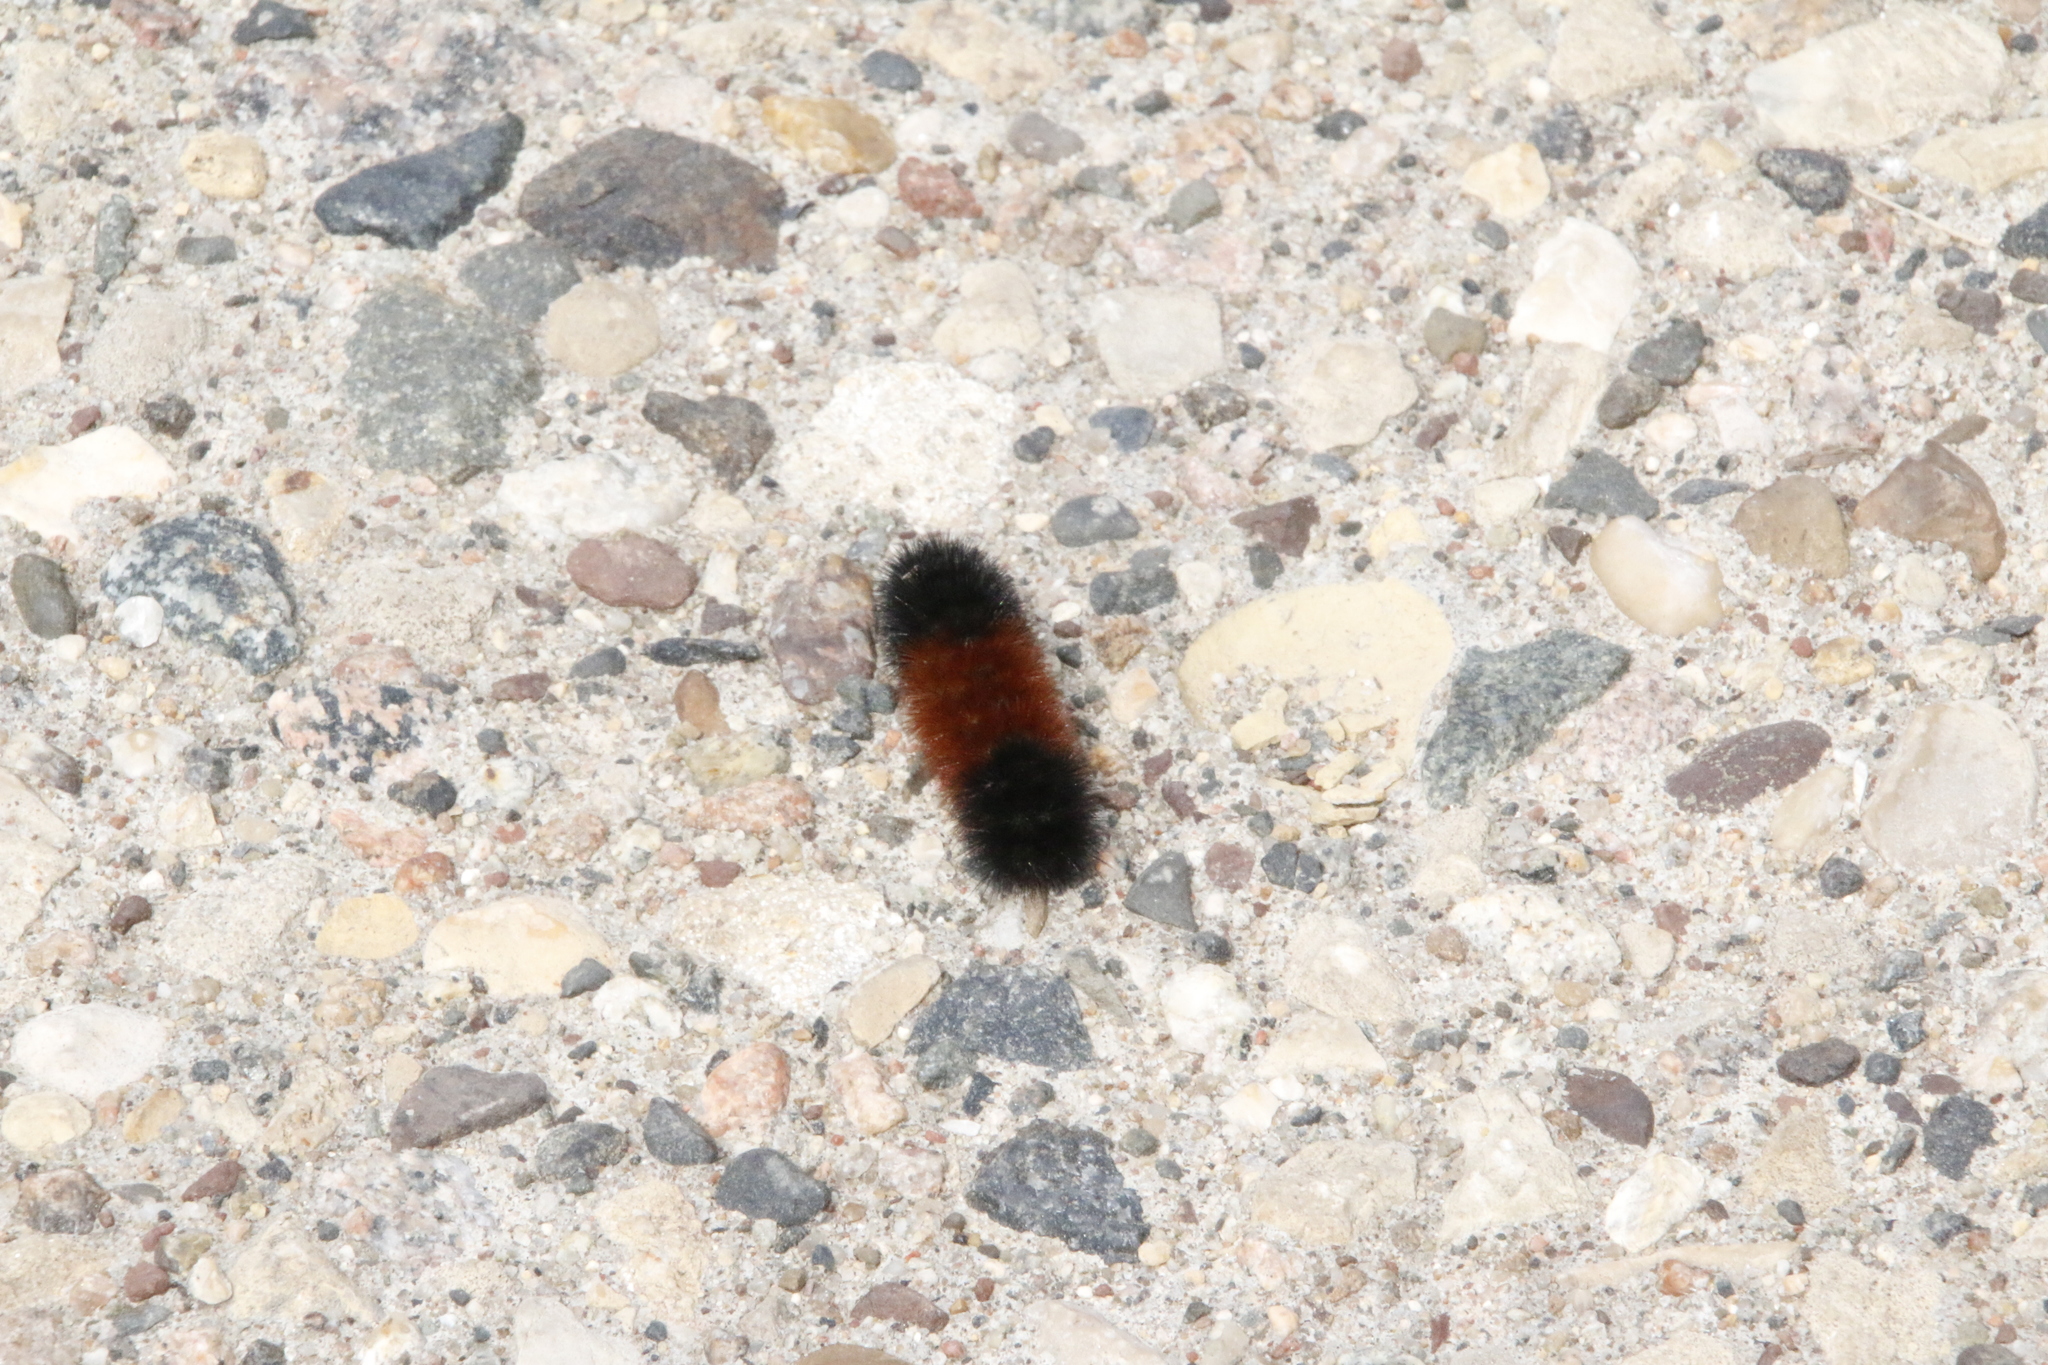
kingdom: Animalia
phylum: Arthropoda
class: Insecta
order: Lepidoptera
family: Erebidae
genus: Pyrrharctia
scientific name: Pyrrharctia isabella
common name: Isabella tiger moth
